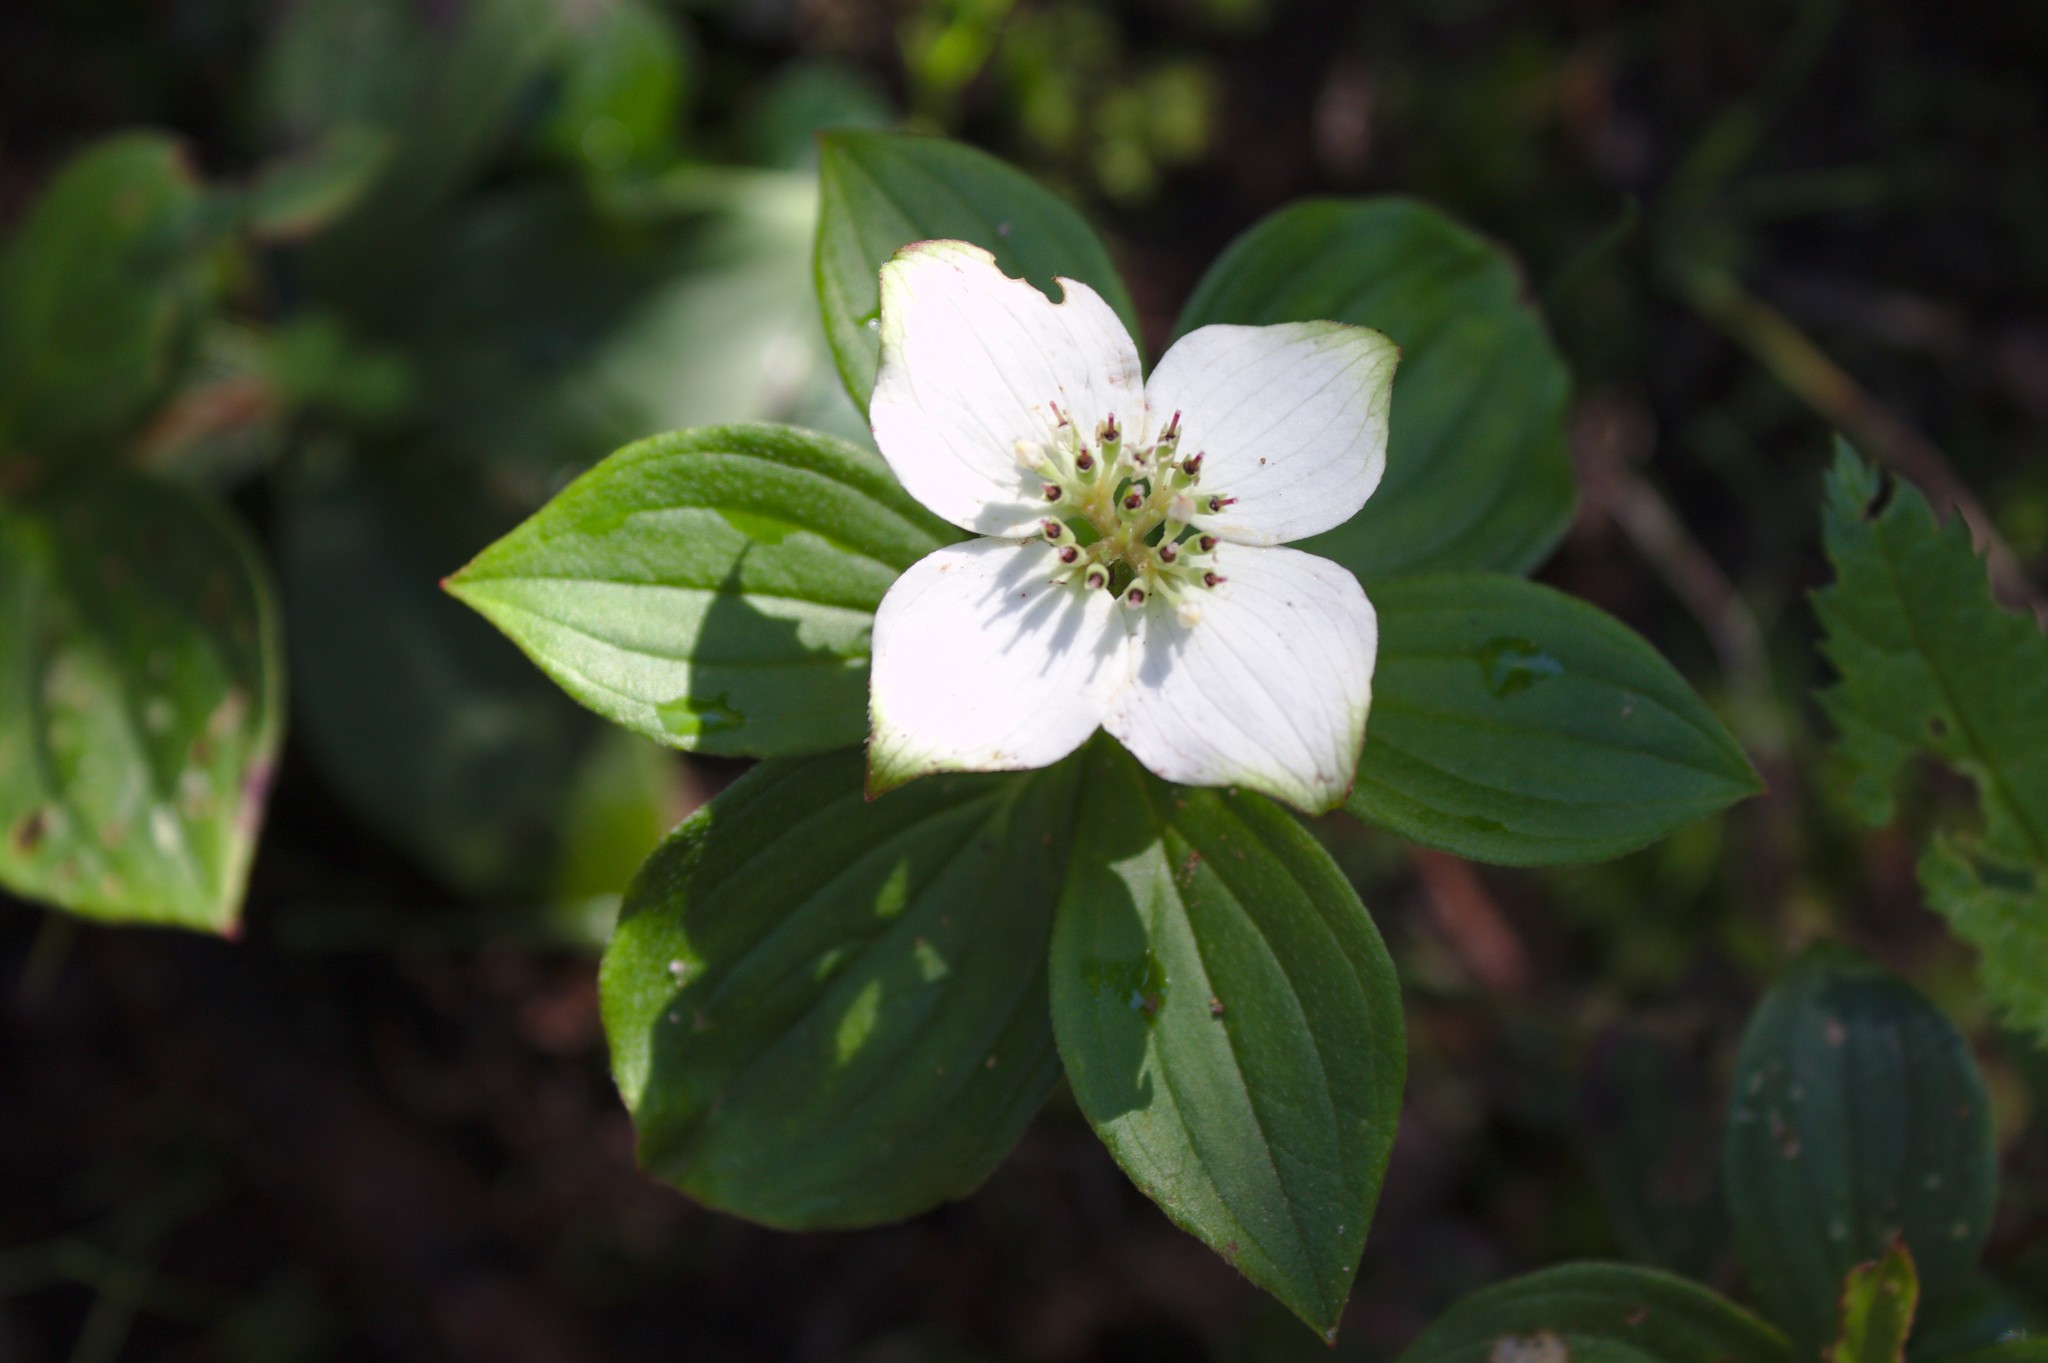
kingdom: Plantae
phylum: Tracheophyta
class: Magnoliopsida
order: Cornales
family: Cornaceae
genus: Cornus
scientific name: Cornus canadensis
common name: Creeping dogwood
